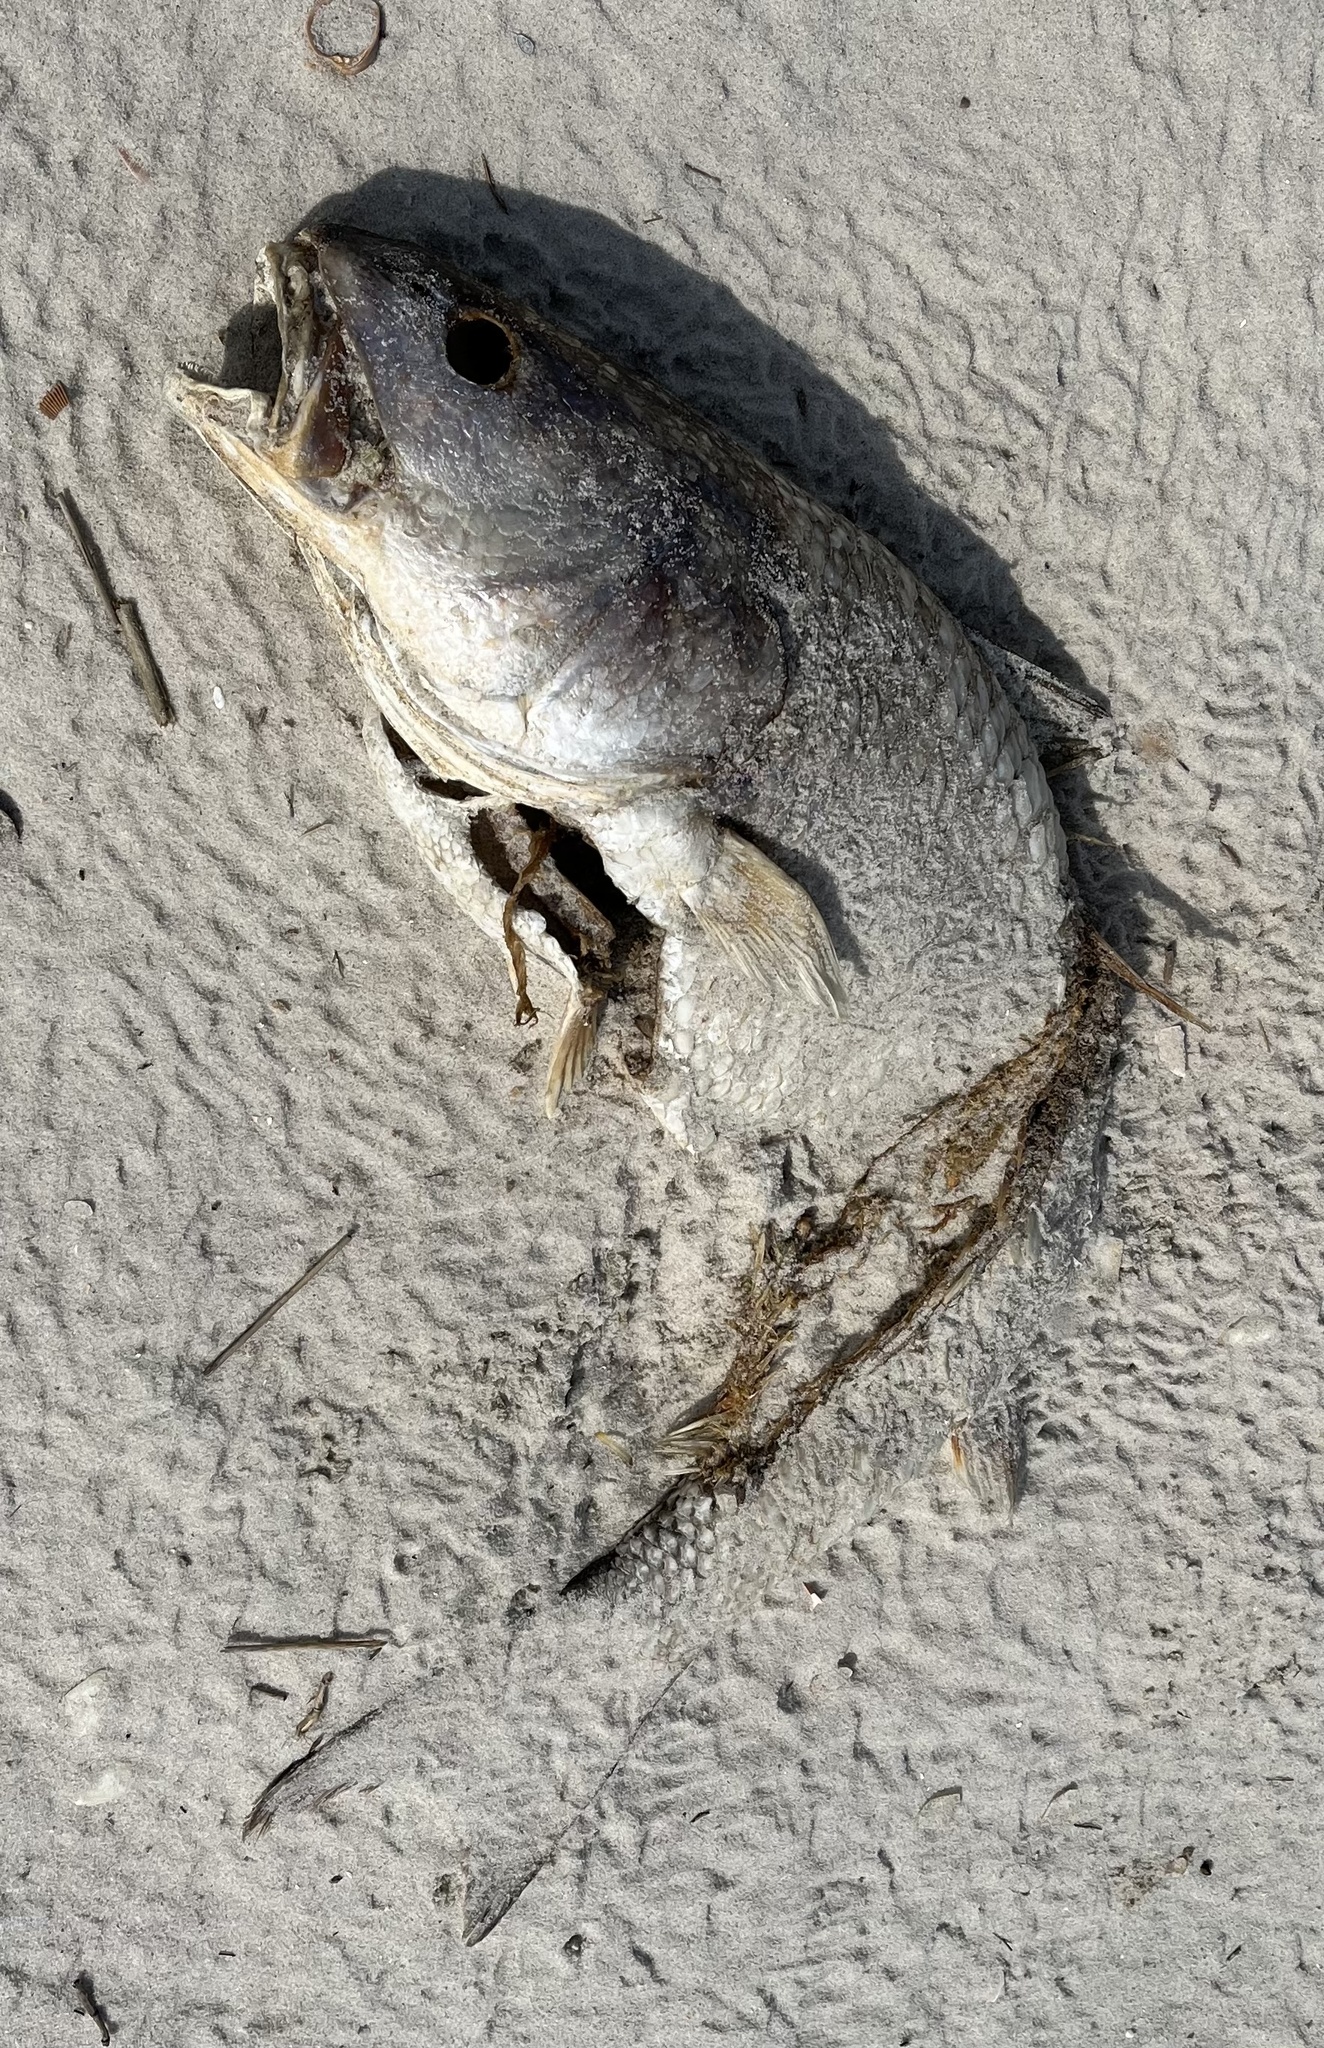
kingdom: Animalia
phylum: Chordata
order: Perciformes
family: Sciaenidae
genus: Sciaenops
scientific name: Sciaenops ocellatus
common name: Red drum
